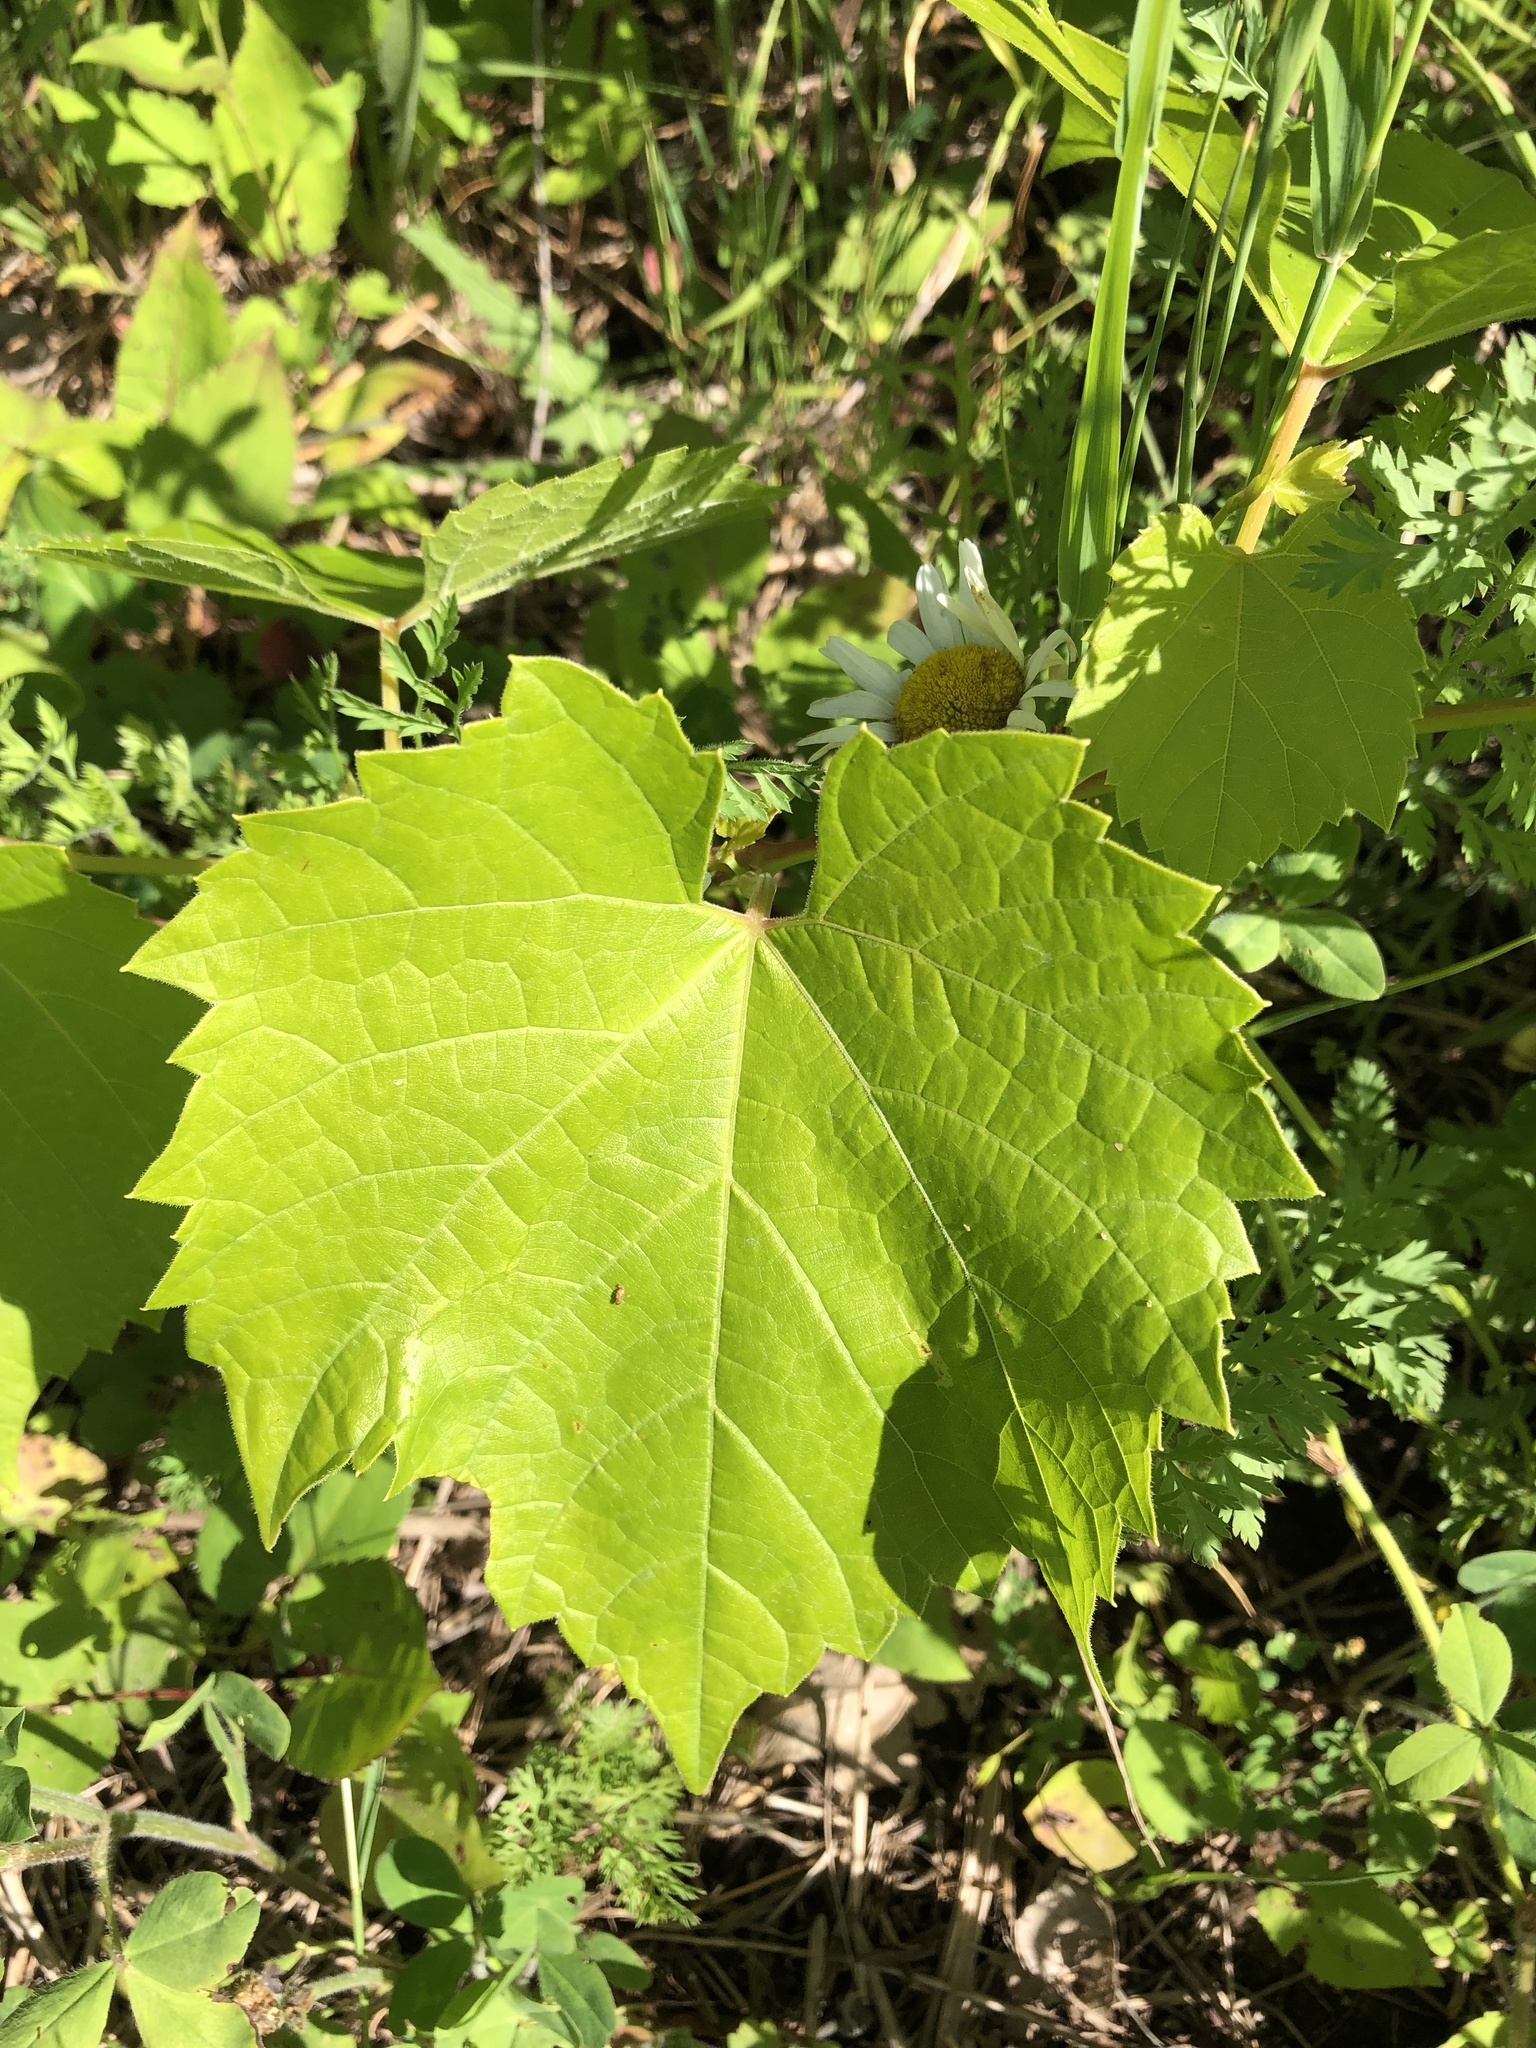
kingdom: Plantae
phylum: Tracheophyta
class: Magnoliopsida
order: Vitales
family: Vitaceae
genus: Vitis
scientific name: Vitis riparia
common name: Frost grape
